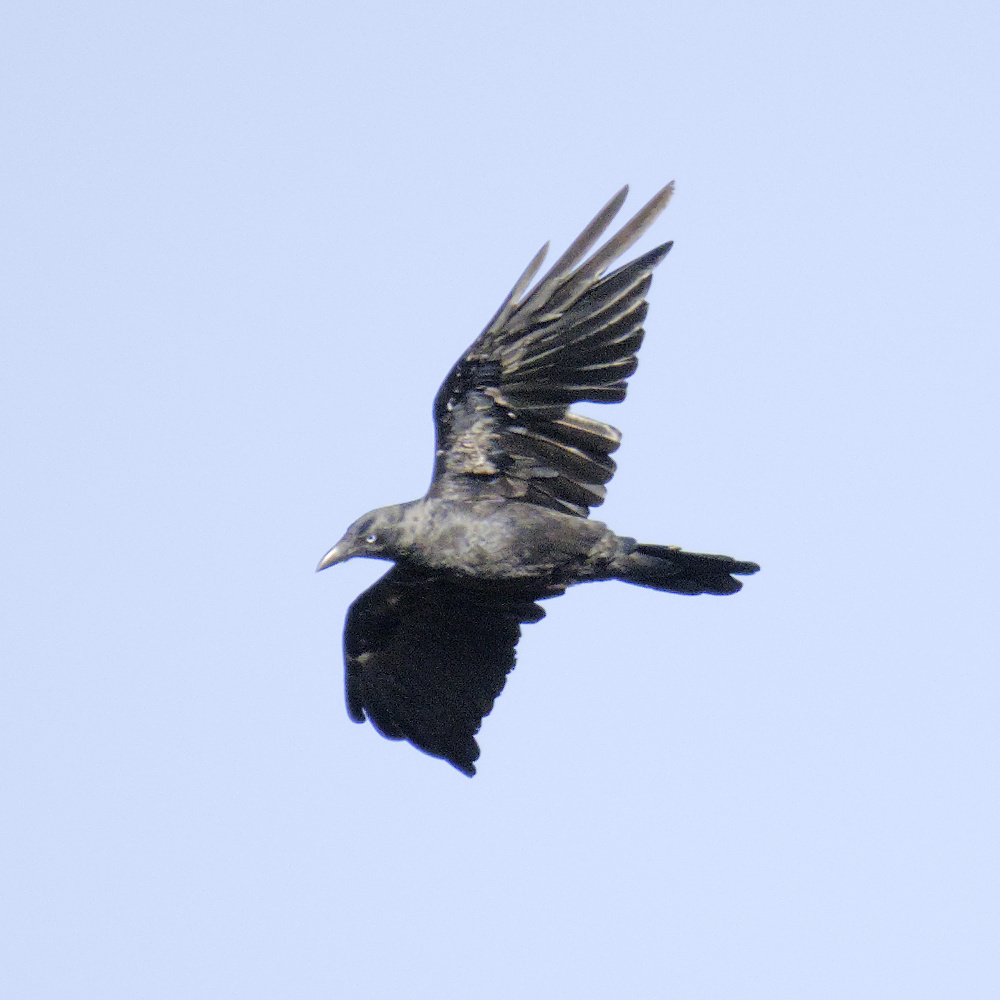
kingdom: Animalia
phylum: Chordata
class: Aves
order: Passeriformes
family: Corvidae
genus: Corvus
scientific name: Corvus mellori
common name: Little raven
